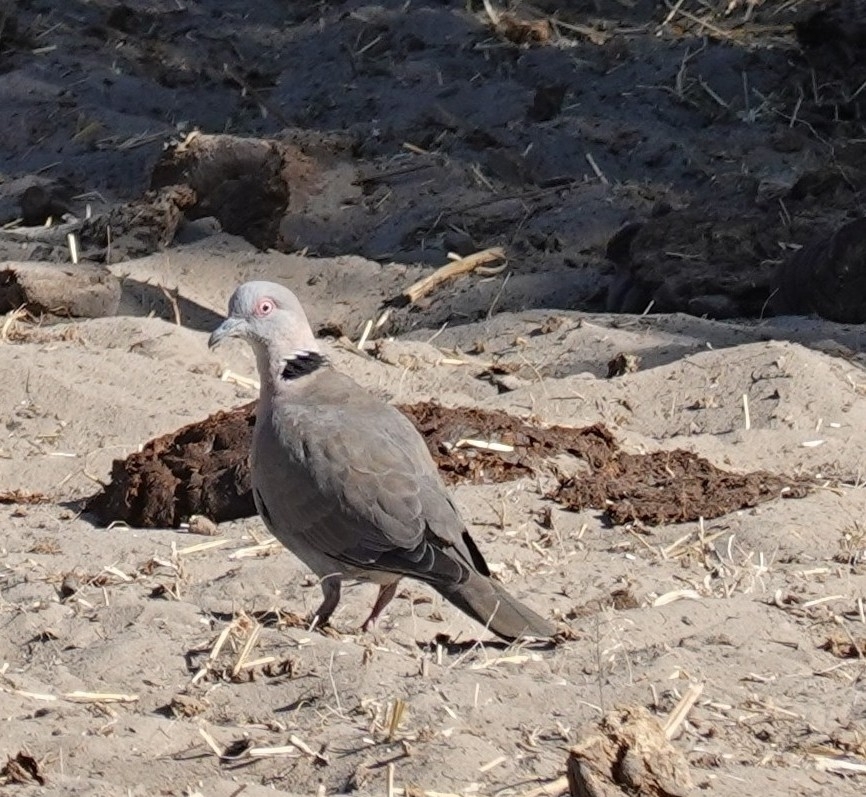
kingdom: Animalia
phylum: Chordata
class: Aves
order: Columbiformes
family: Columbidae
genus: Streptopelia
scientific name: Streptopelia decipiens
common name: Mourning collared dove
